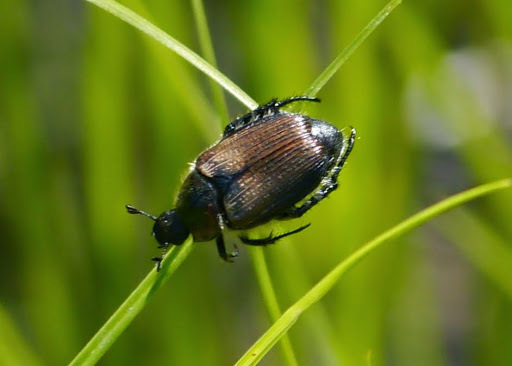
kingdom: Animalia
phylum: Arthropoda
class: Insecta
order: Coleoptera
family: Scarabaeidae
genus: Strigoderma
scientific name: Strigoderma arbicola
